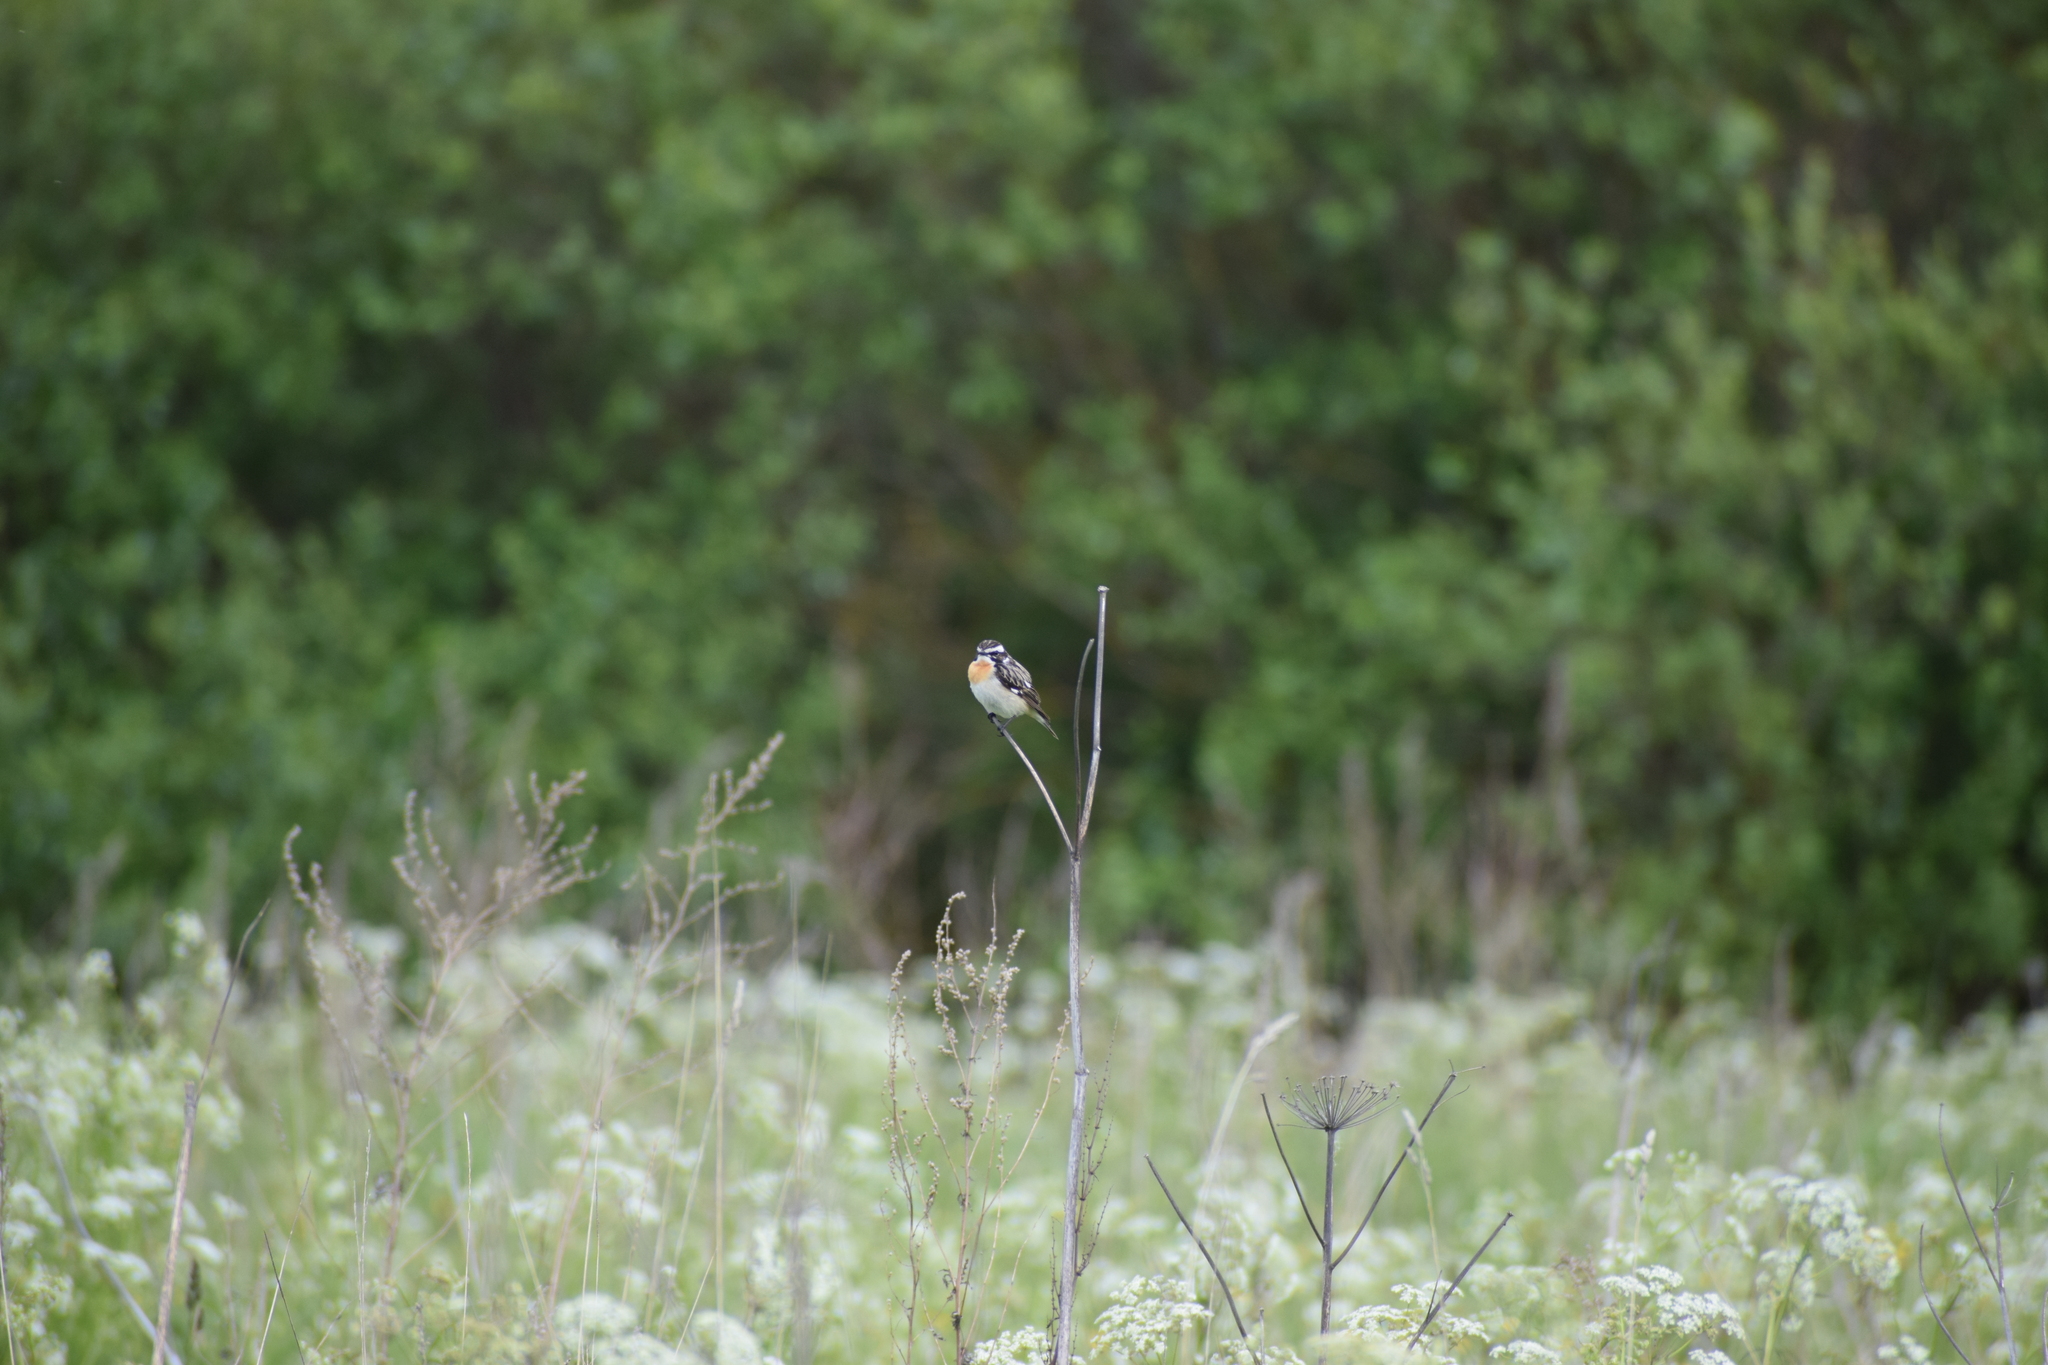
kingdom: Animalia
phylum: Chordata
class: Aves
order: Passeriformes
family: Muscicapidae
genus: Saxicola
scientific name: Saxicola rubetra
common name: Whinchat
